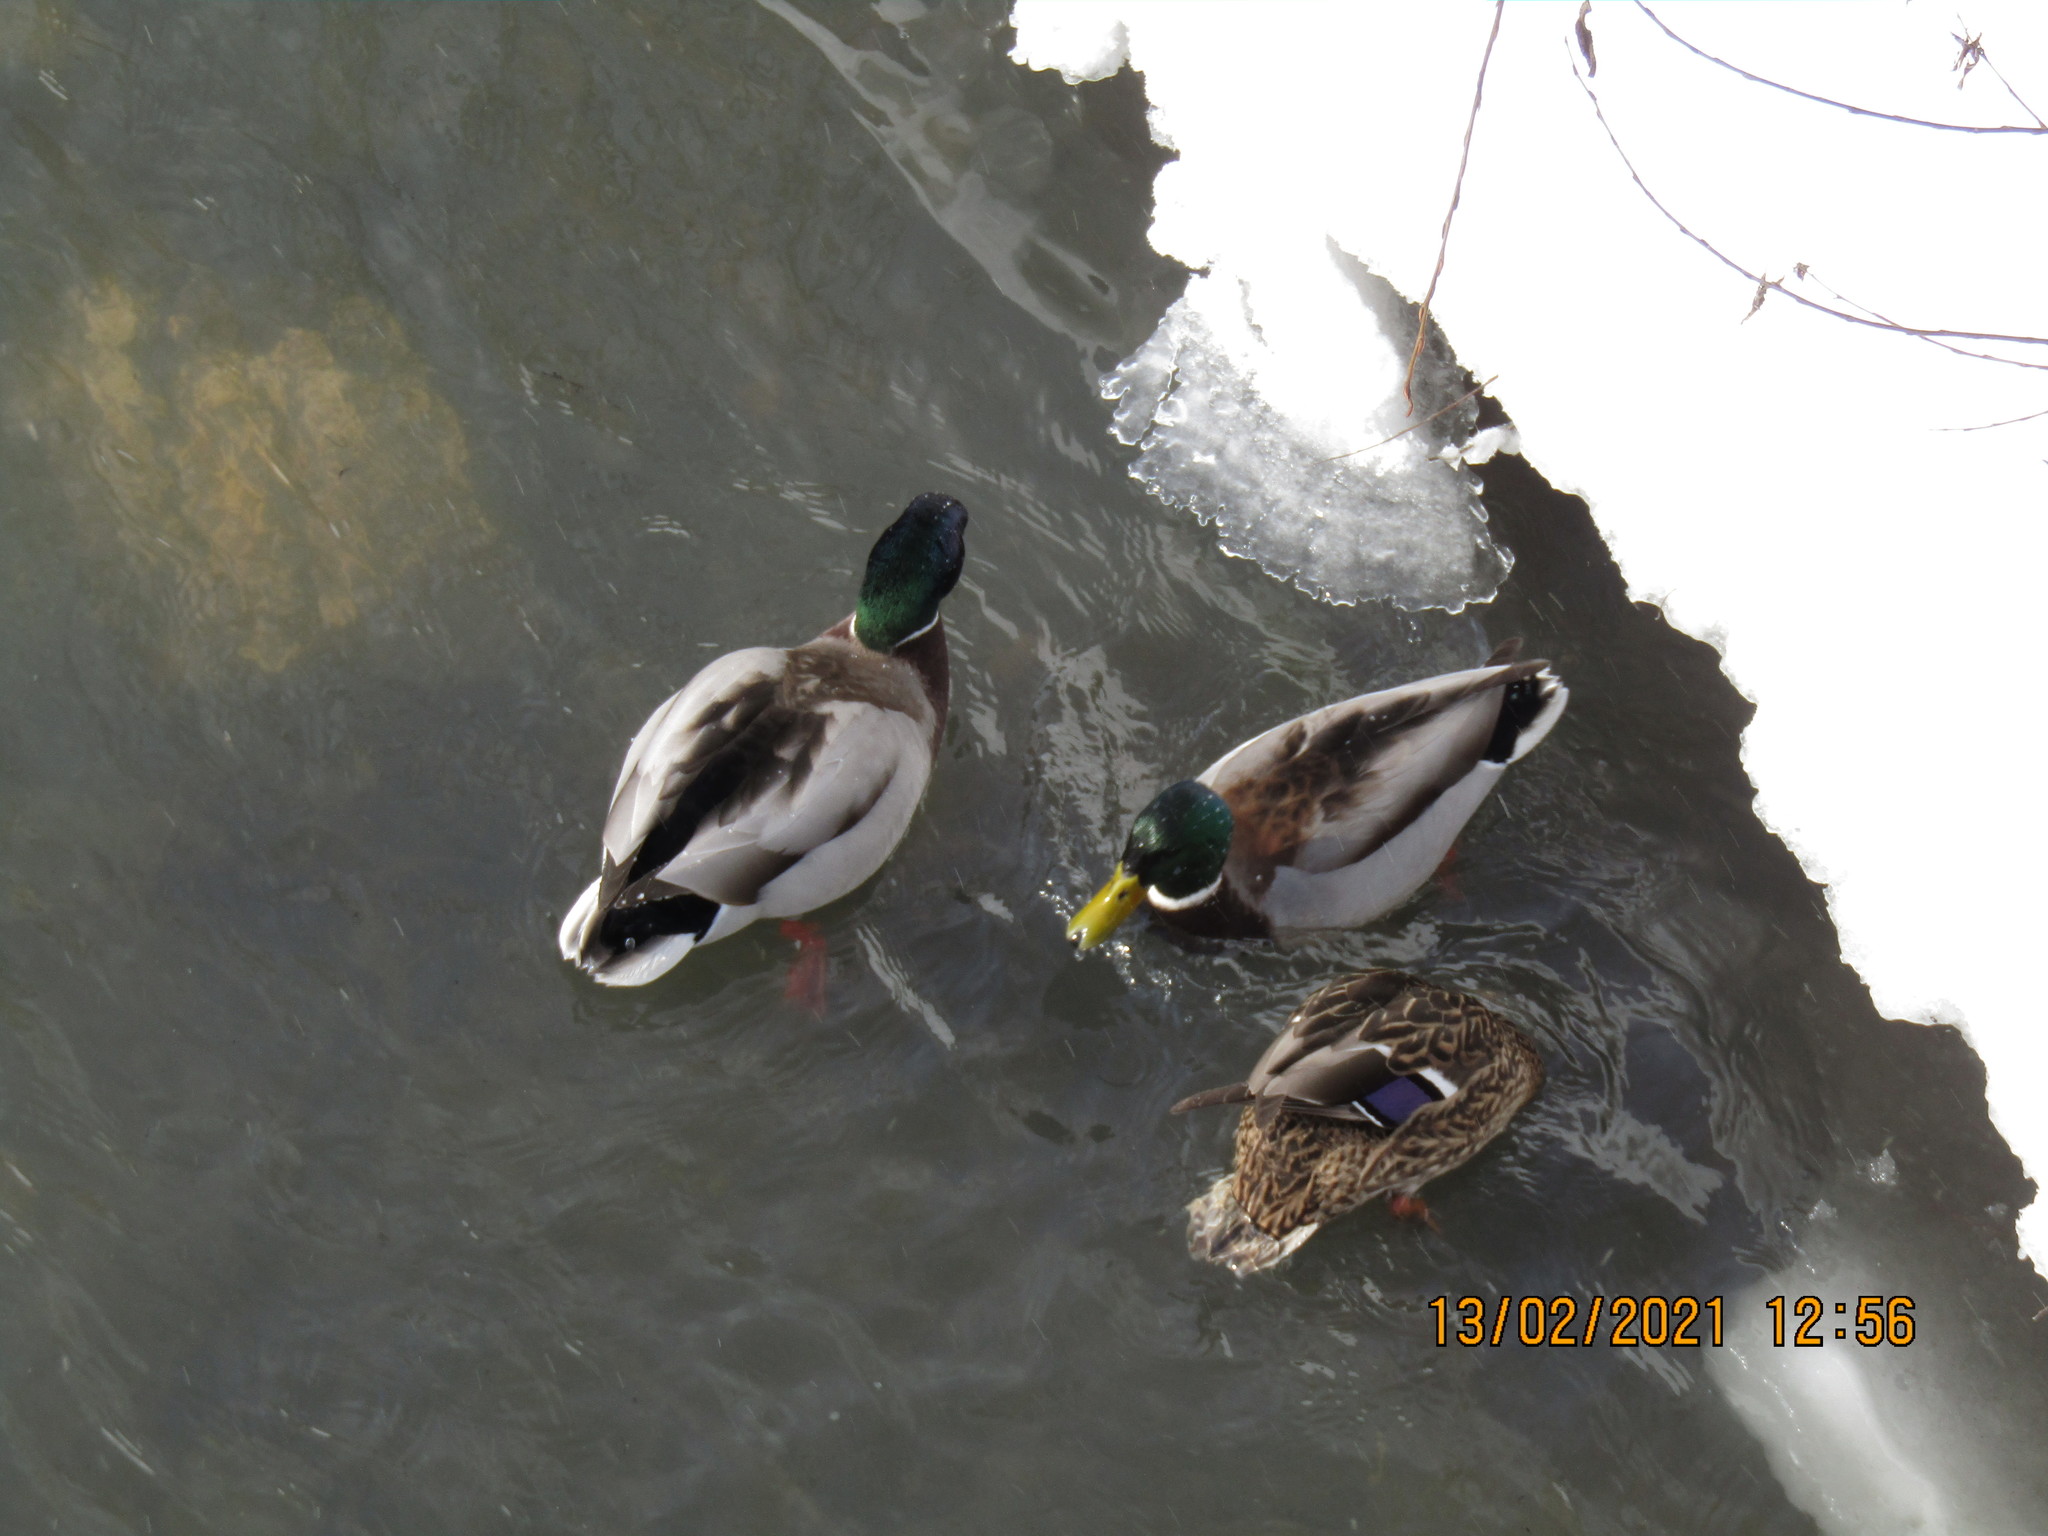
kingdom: Animalia
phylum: Chordata
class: Aves
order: Anseriformes
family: Anatidae
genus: Anas
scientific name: Anas platyrhynchos
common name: Mallard
